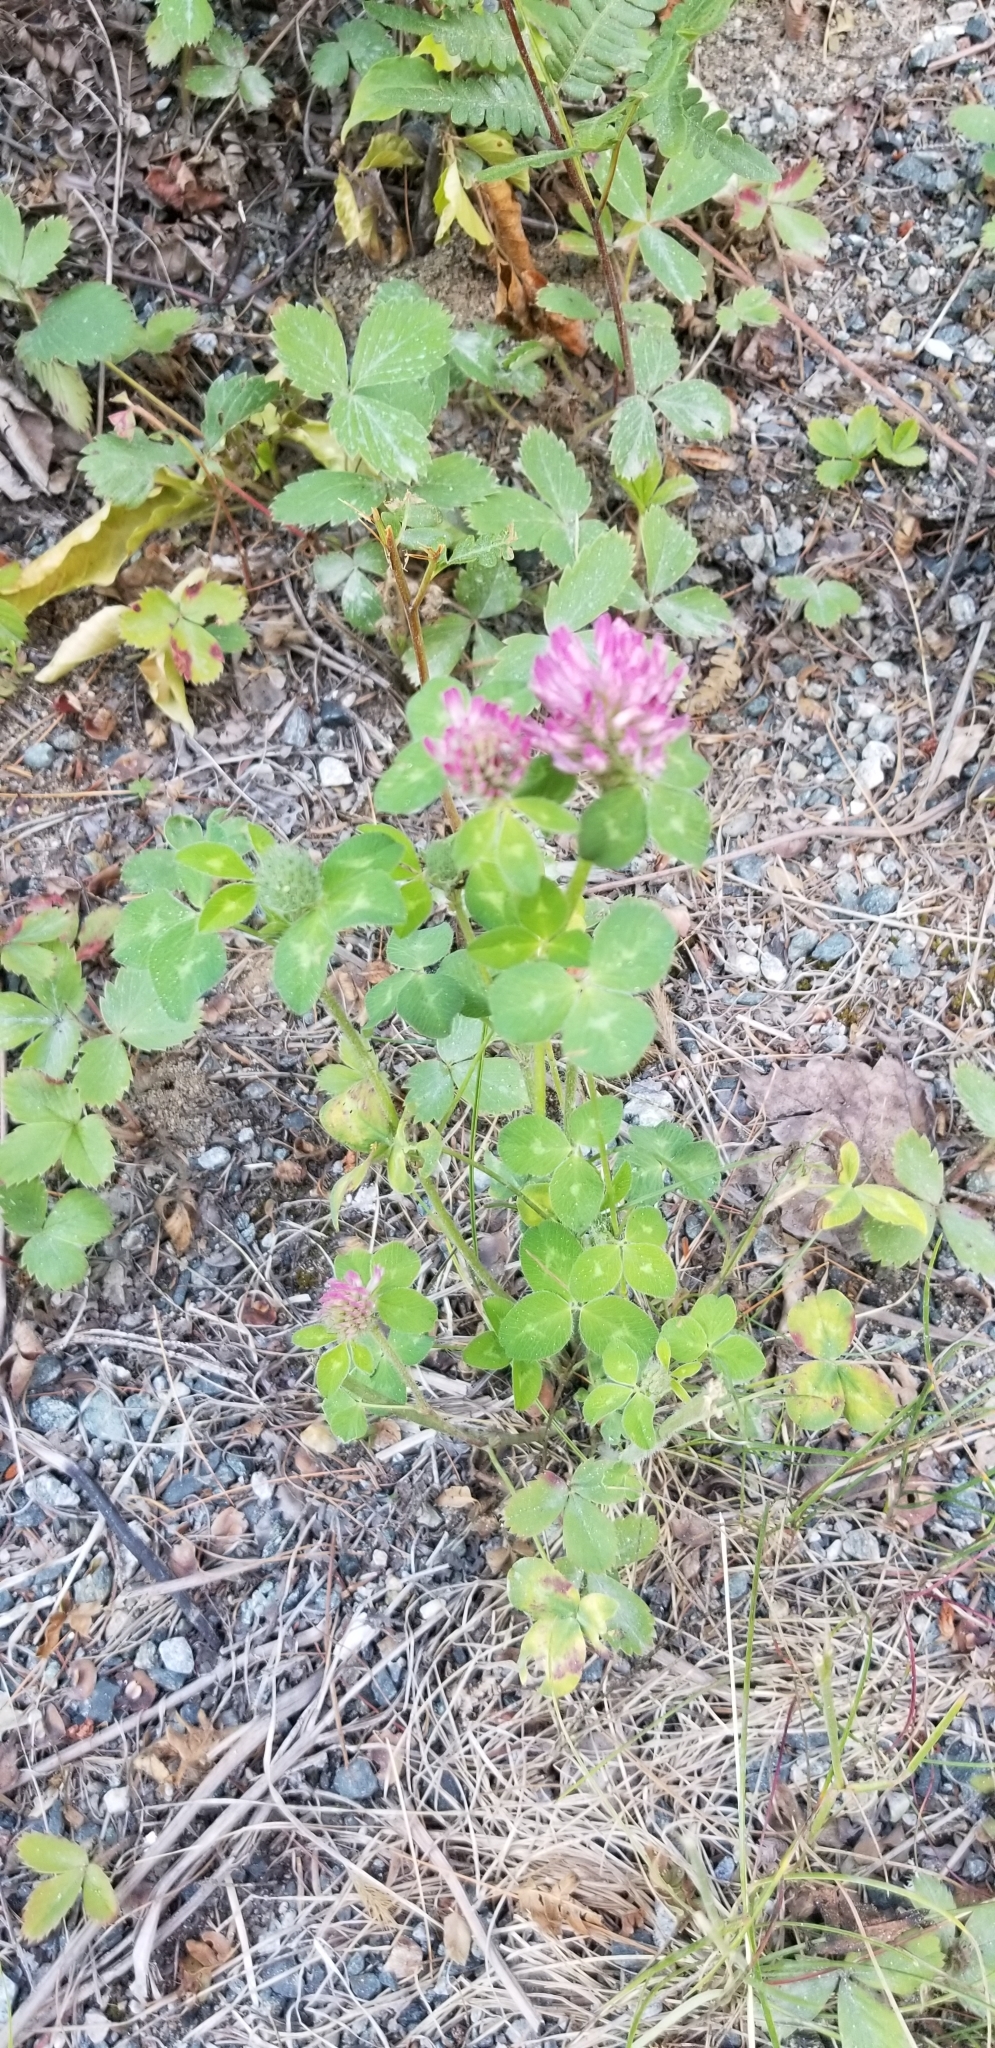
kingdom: Plantae
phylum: Tracheophyta
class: Magnoliopsida
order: Fabales
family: Fabaceae
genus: Trifolium
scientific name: Trifolium pratense
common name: Red clover
